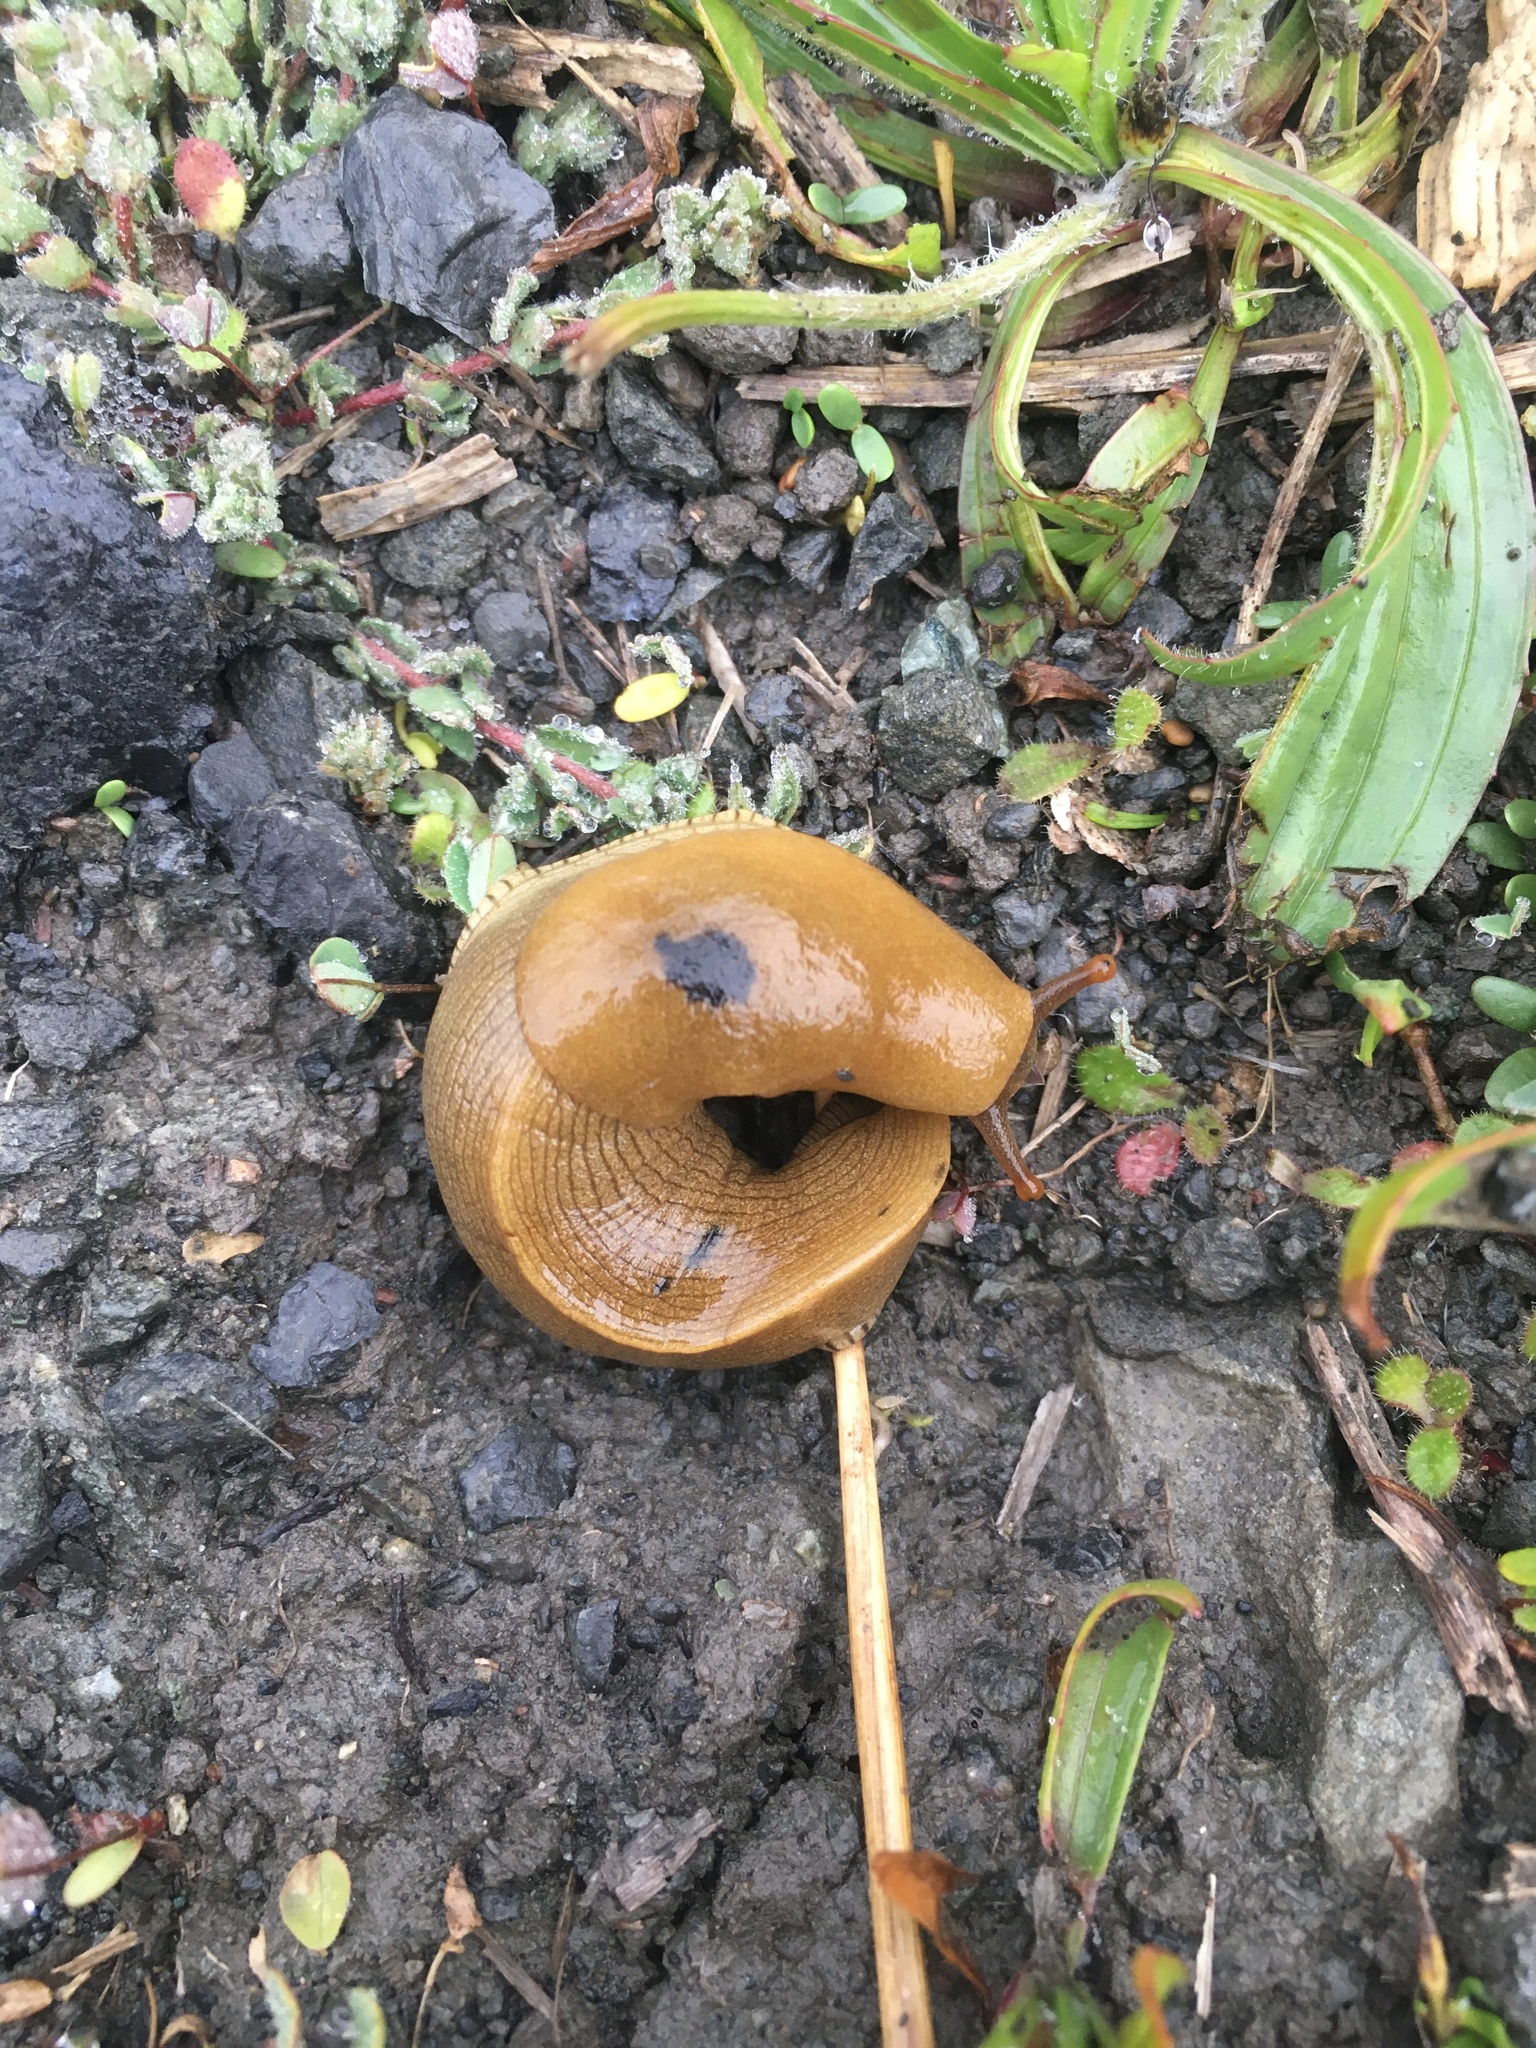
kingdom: Animalia
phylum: Mollusca
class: Gastropoda
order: Stylommatophora
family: Ariolimacidae
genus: Ariolimax
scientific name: Ariolimax buttoni
